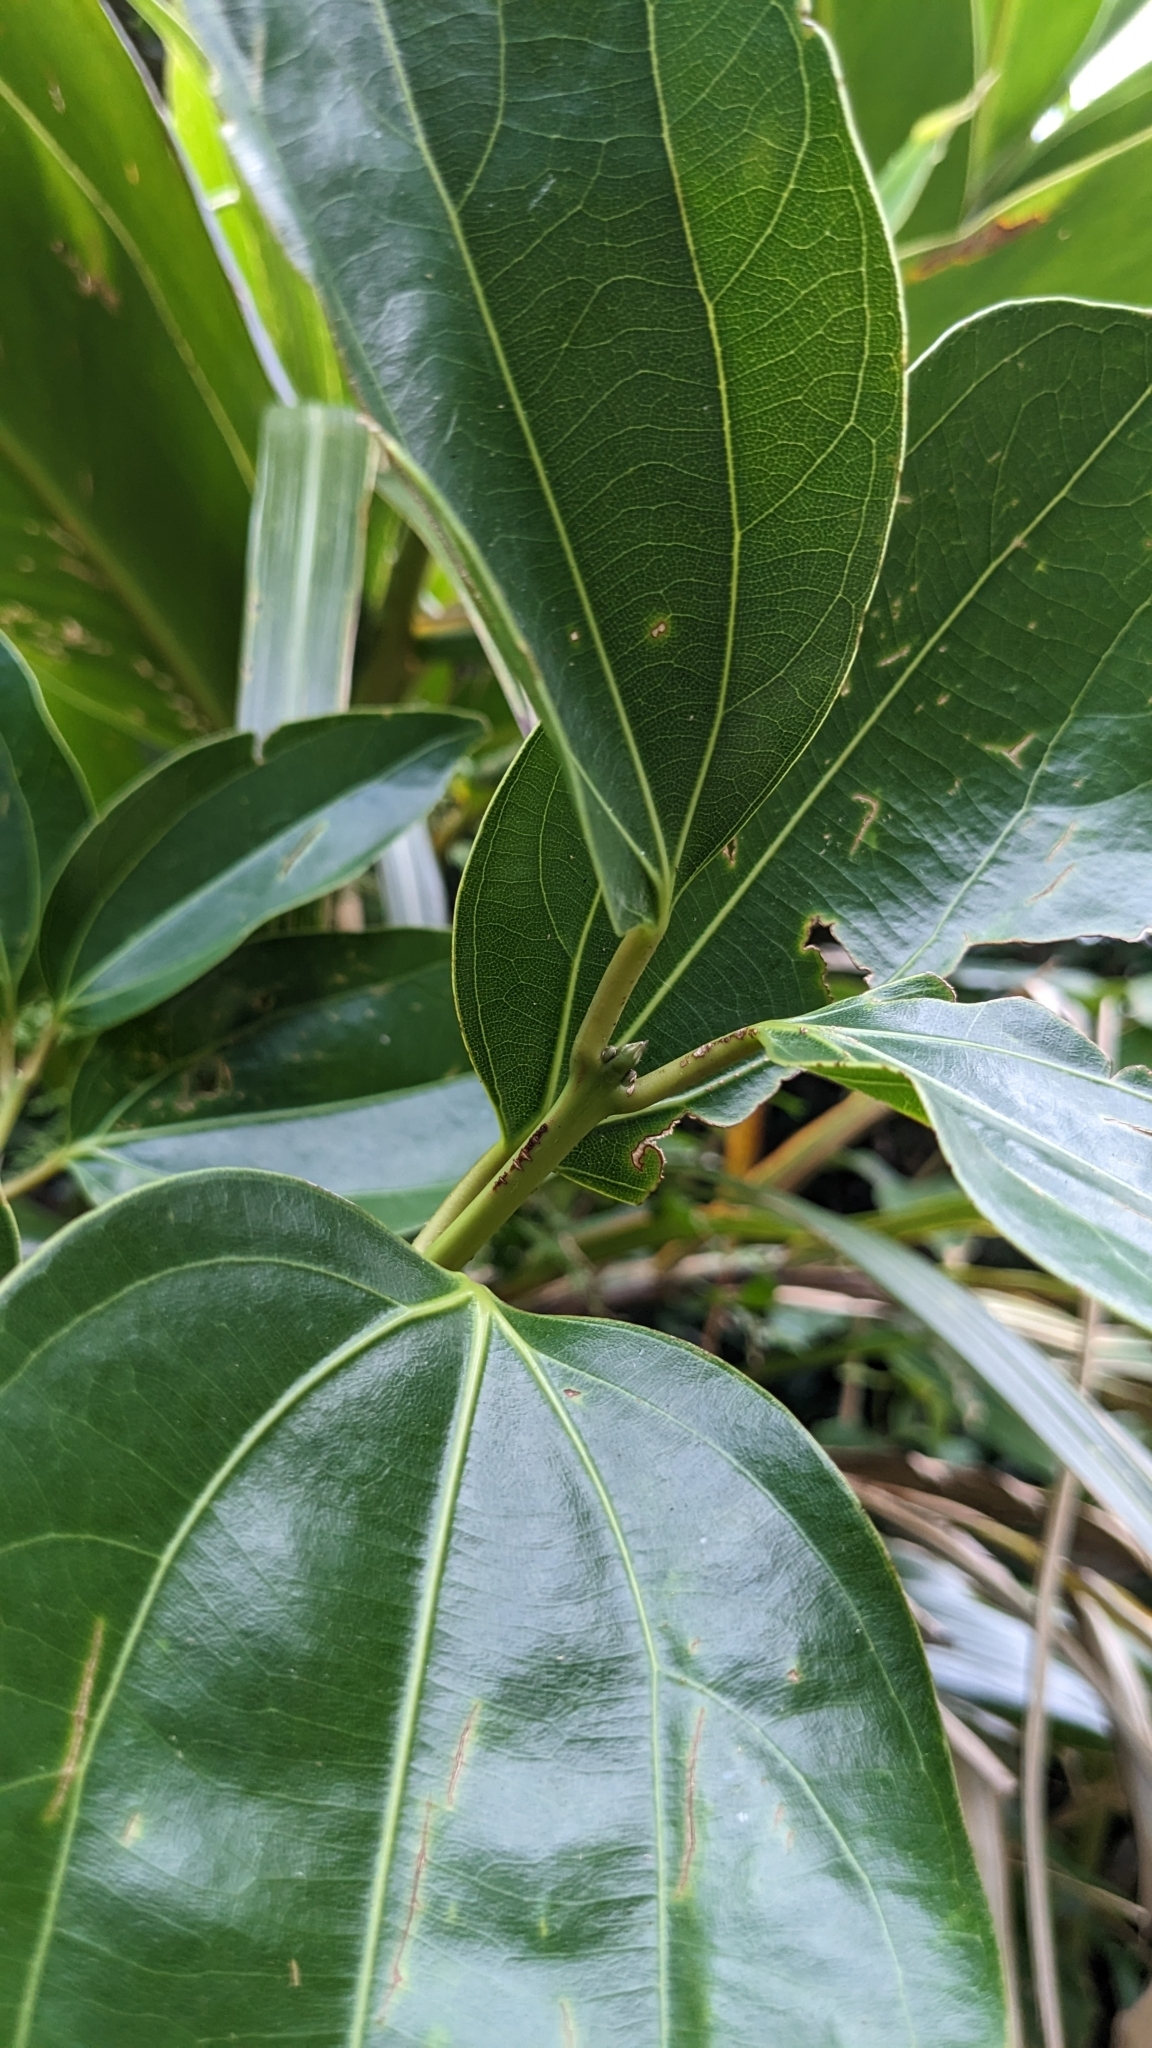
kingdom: Plantae
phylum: Tracheophyta
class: Magnoliopsida
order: Laurales
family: Lauraceae
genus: Cinnamomum
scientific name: Cinnamomum kotoense
